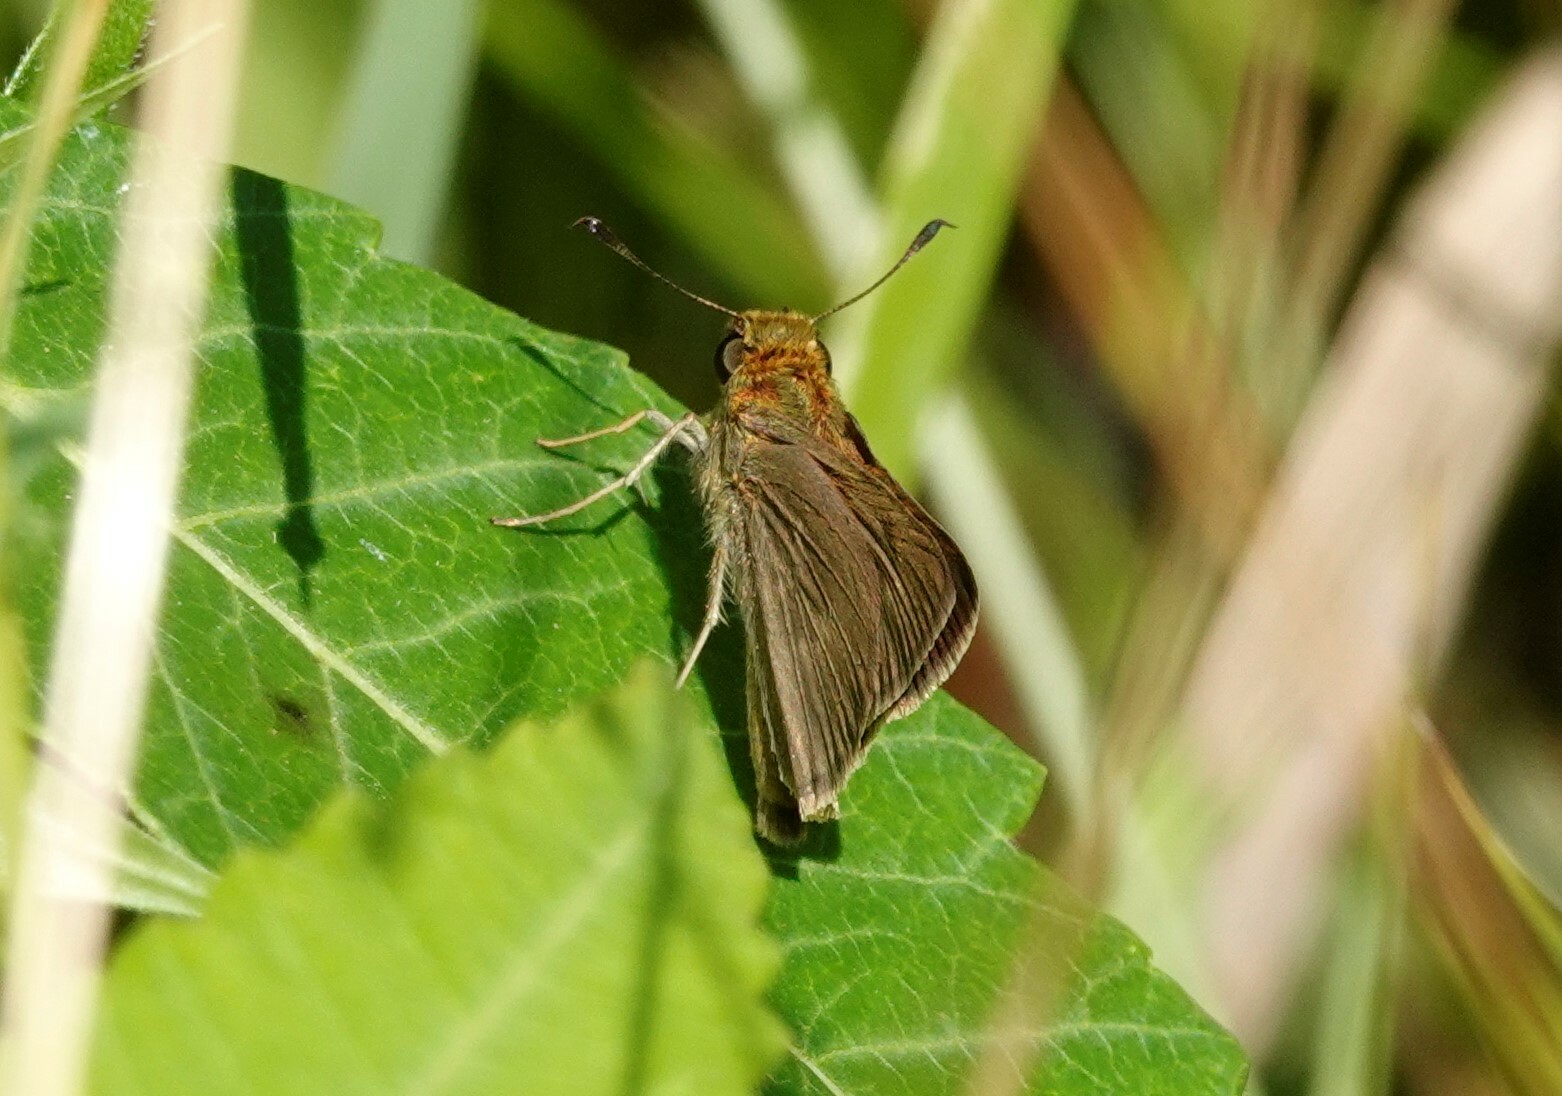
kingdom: Animalia
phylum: Arthropoda
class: Insecta
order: Lepidoptera
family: Hesperiidae
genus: Euphyes
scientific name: Euphyes vestris
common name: Dun skipper
